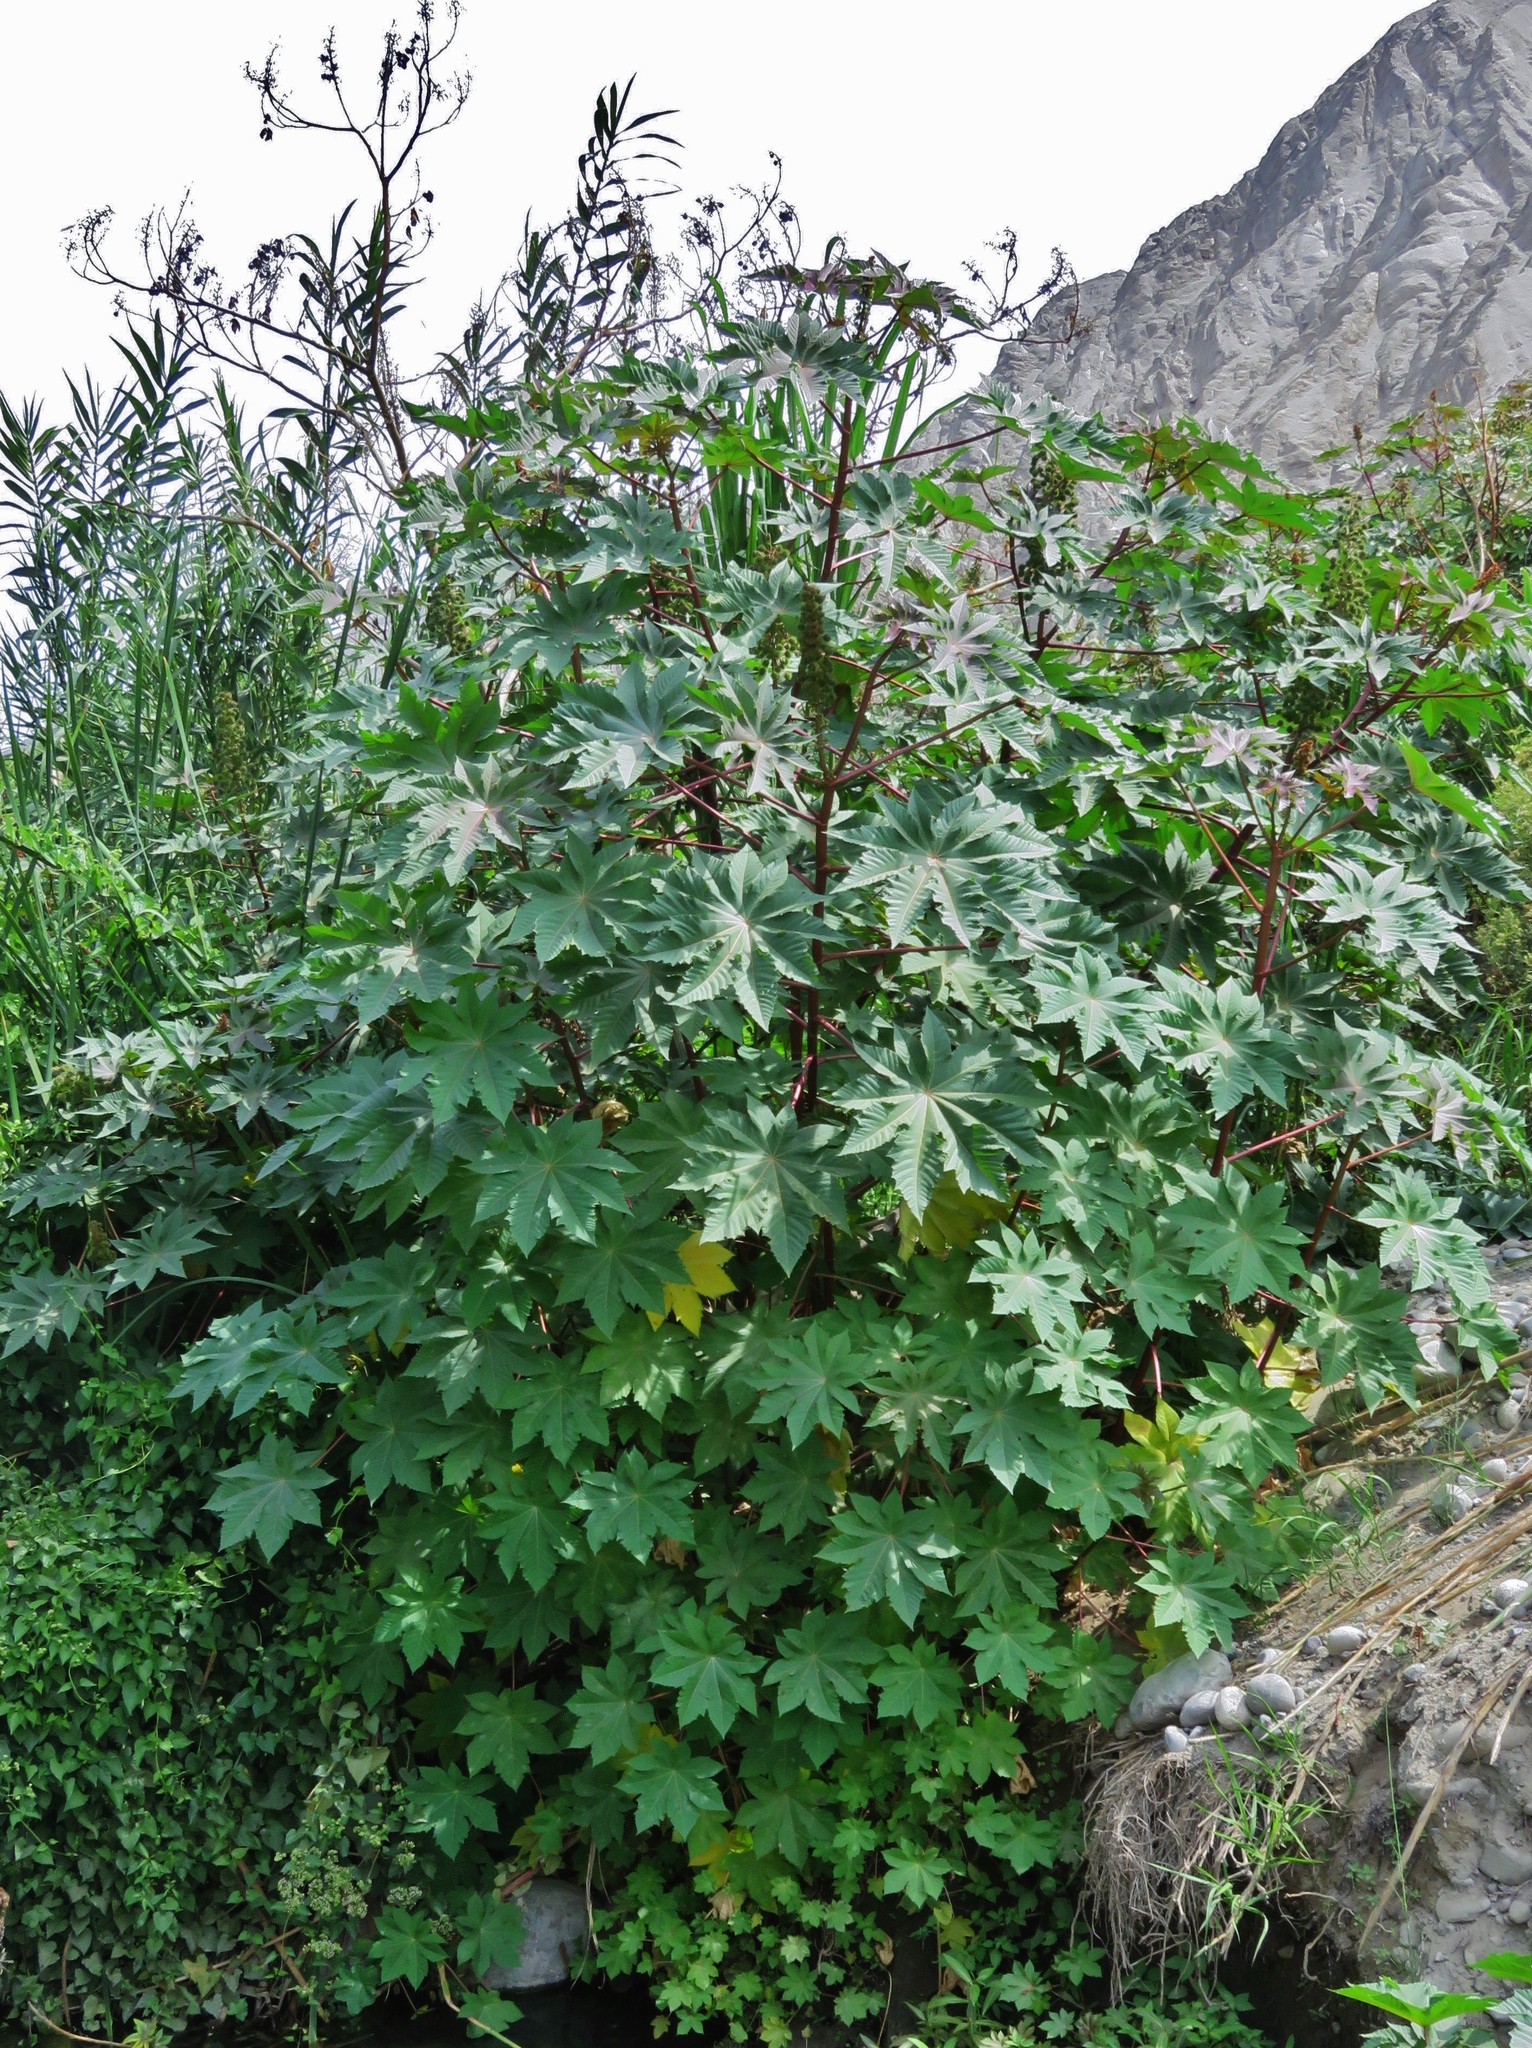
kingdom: Plantae
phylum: Tracheophyta
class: Magnoliopsida
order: Malpighiales
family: Euphorbiaceae
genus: Ricinus
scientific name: Ricinus communis
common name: Castor-oil-plant
